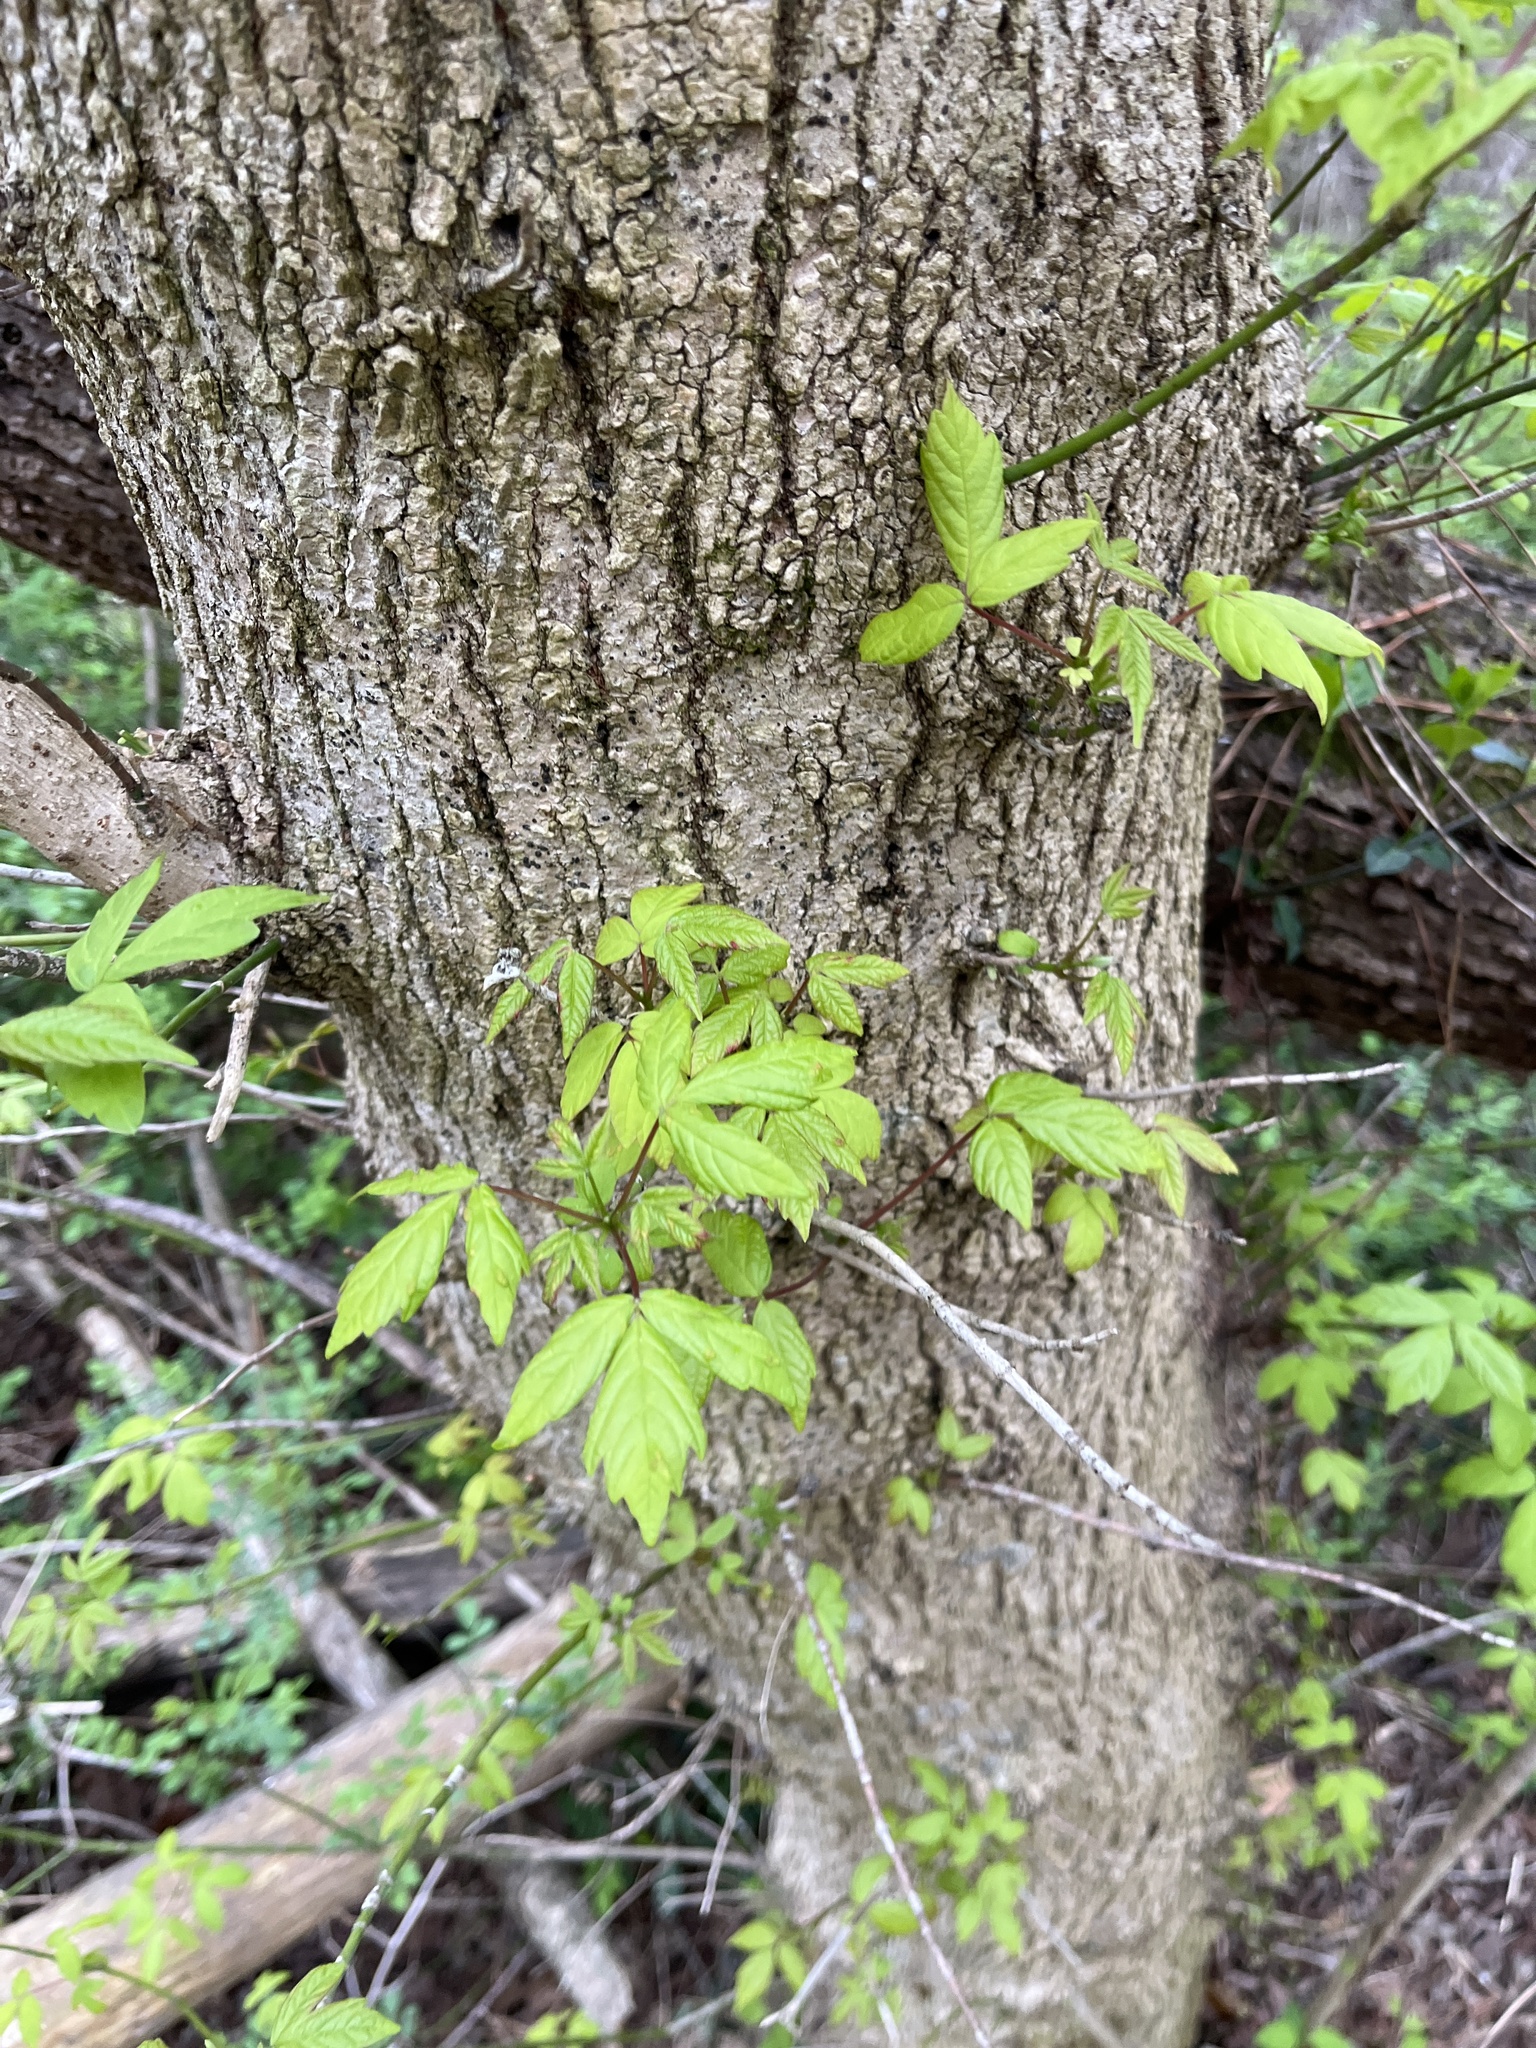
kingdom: Plantae
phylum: Tracheophyta
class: Magnoliopsida
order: Sapindales
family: Sapindaceae
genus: Acer
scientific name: Acer negundo
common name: Ashleaf maple
